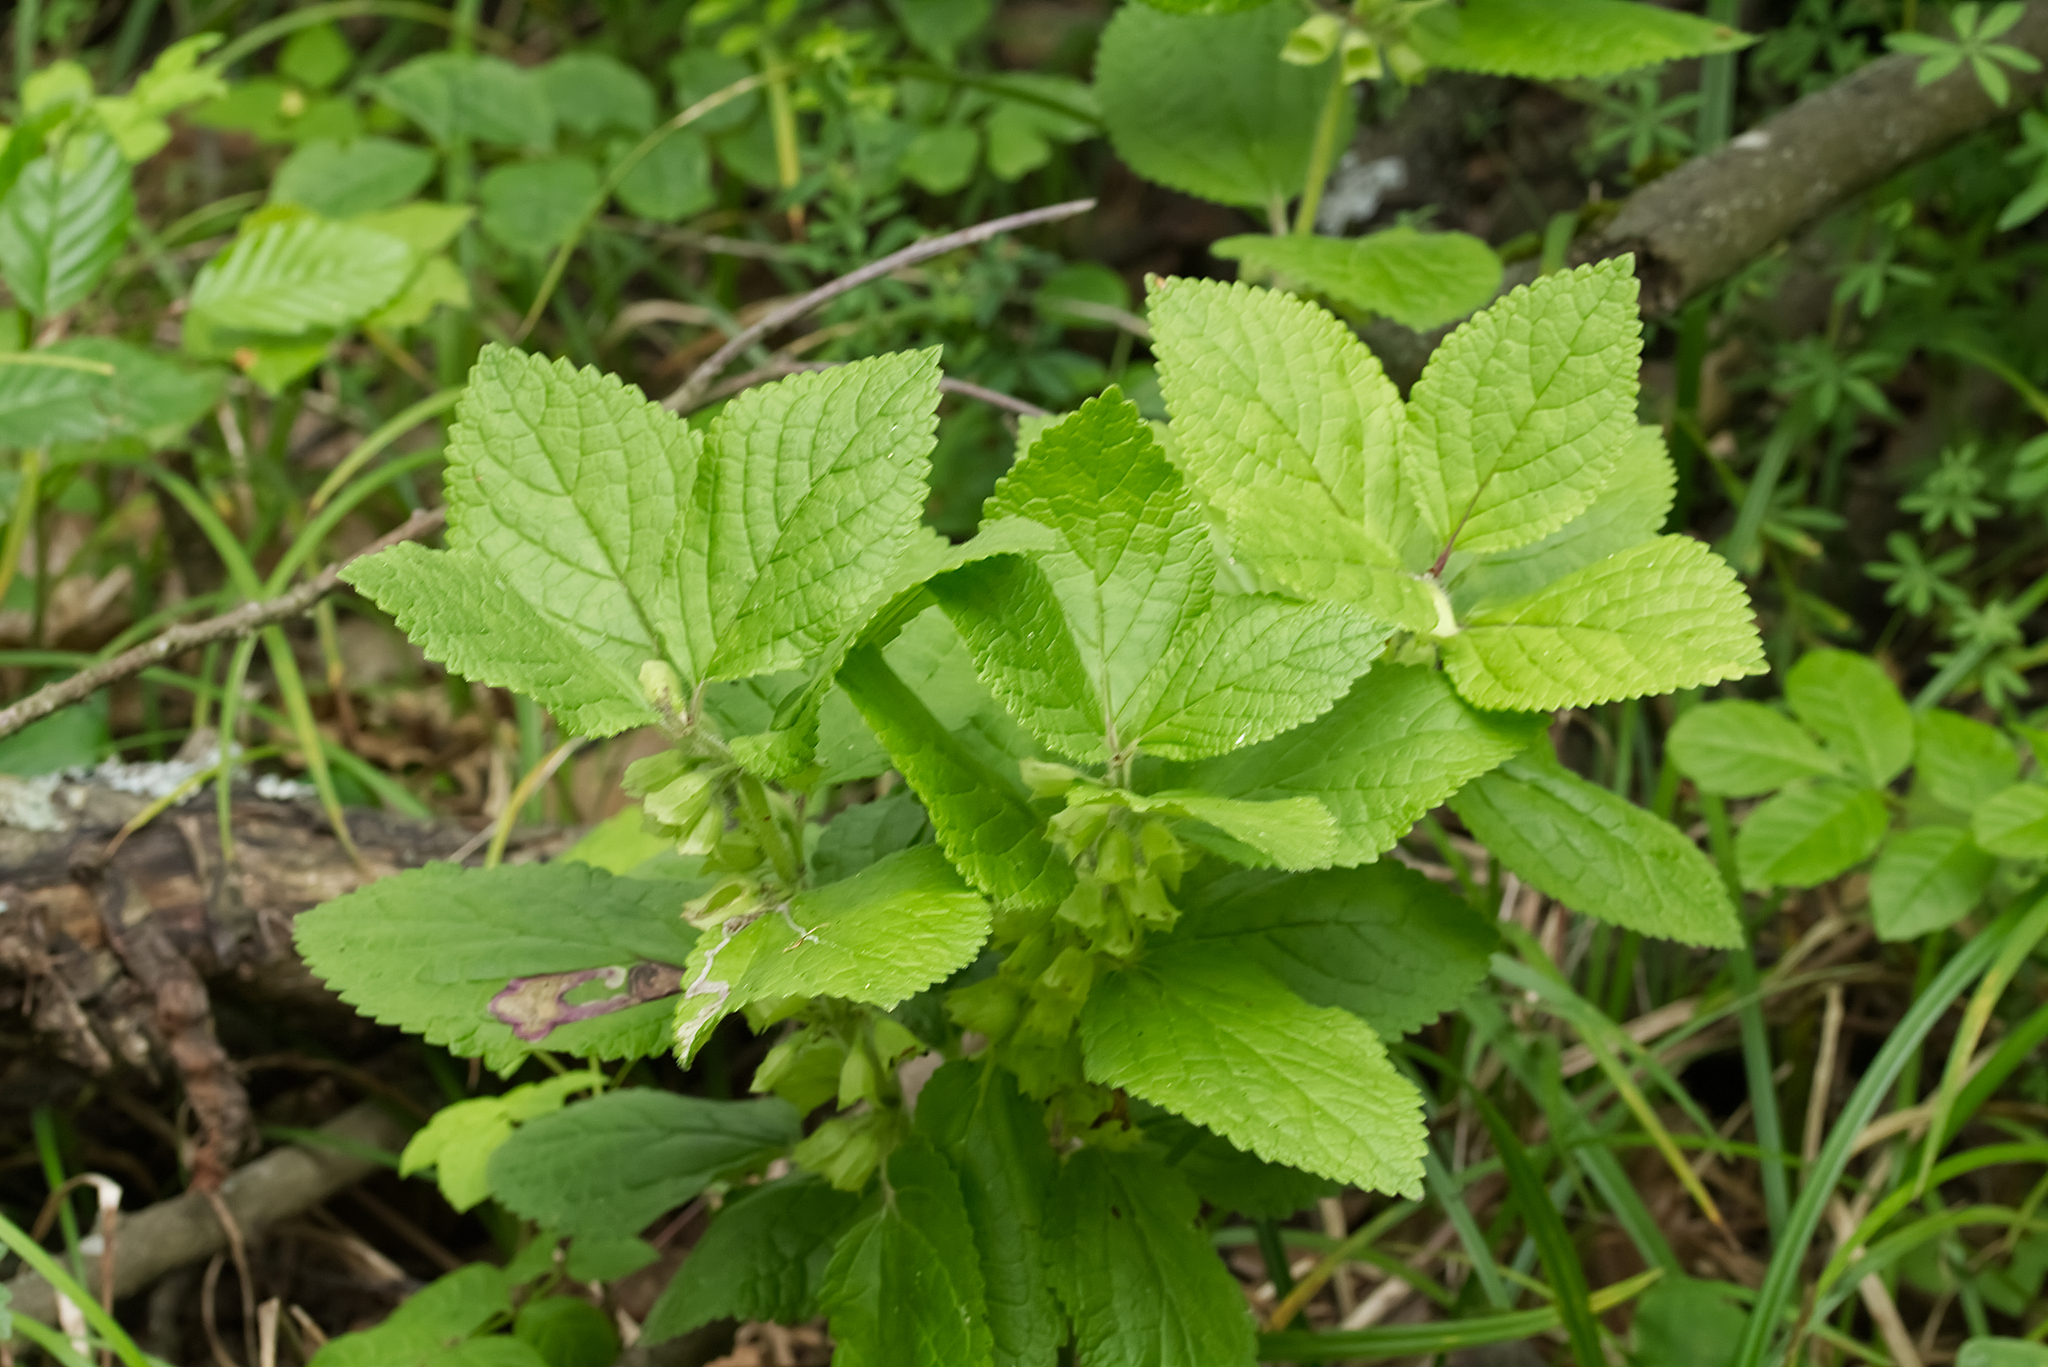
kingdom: Plantae
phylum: Tracheophyta
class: Magnoliopsida
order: Lamiales
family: Lamiaceae
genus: Melittis
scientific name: Melittis melissophyllum
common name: Bastard balm
